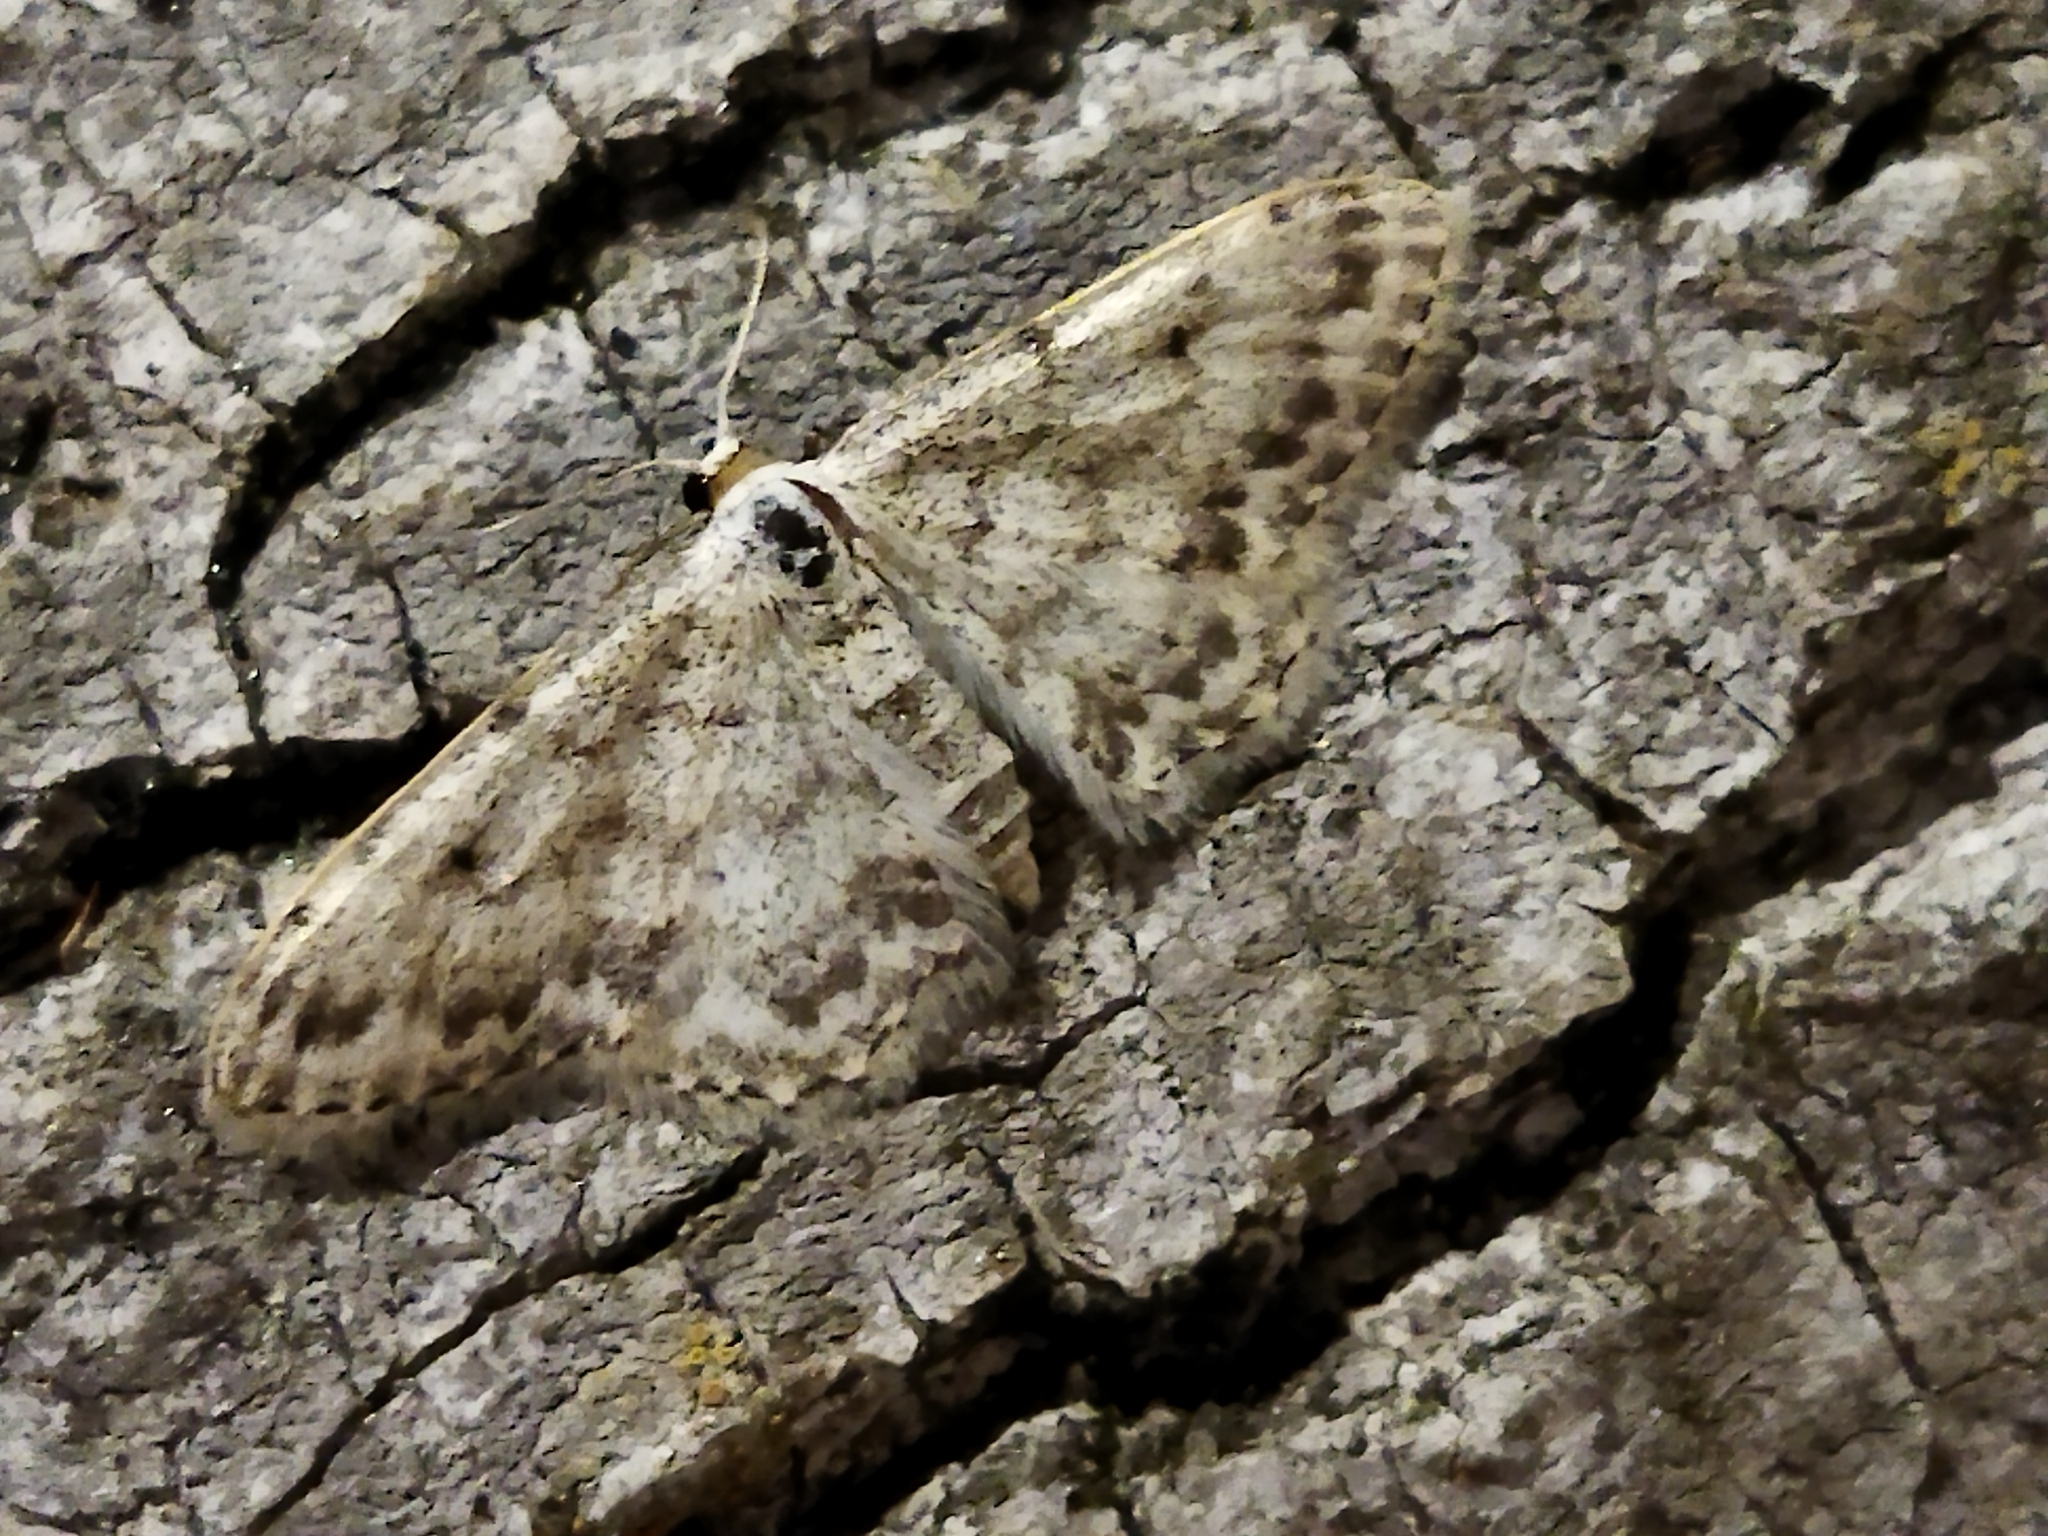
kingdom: Animalia
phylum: Arthropoda
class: Insecta
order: Lepidoptera
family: Geometridae
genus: Idaea
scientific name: Idaea camparia
